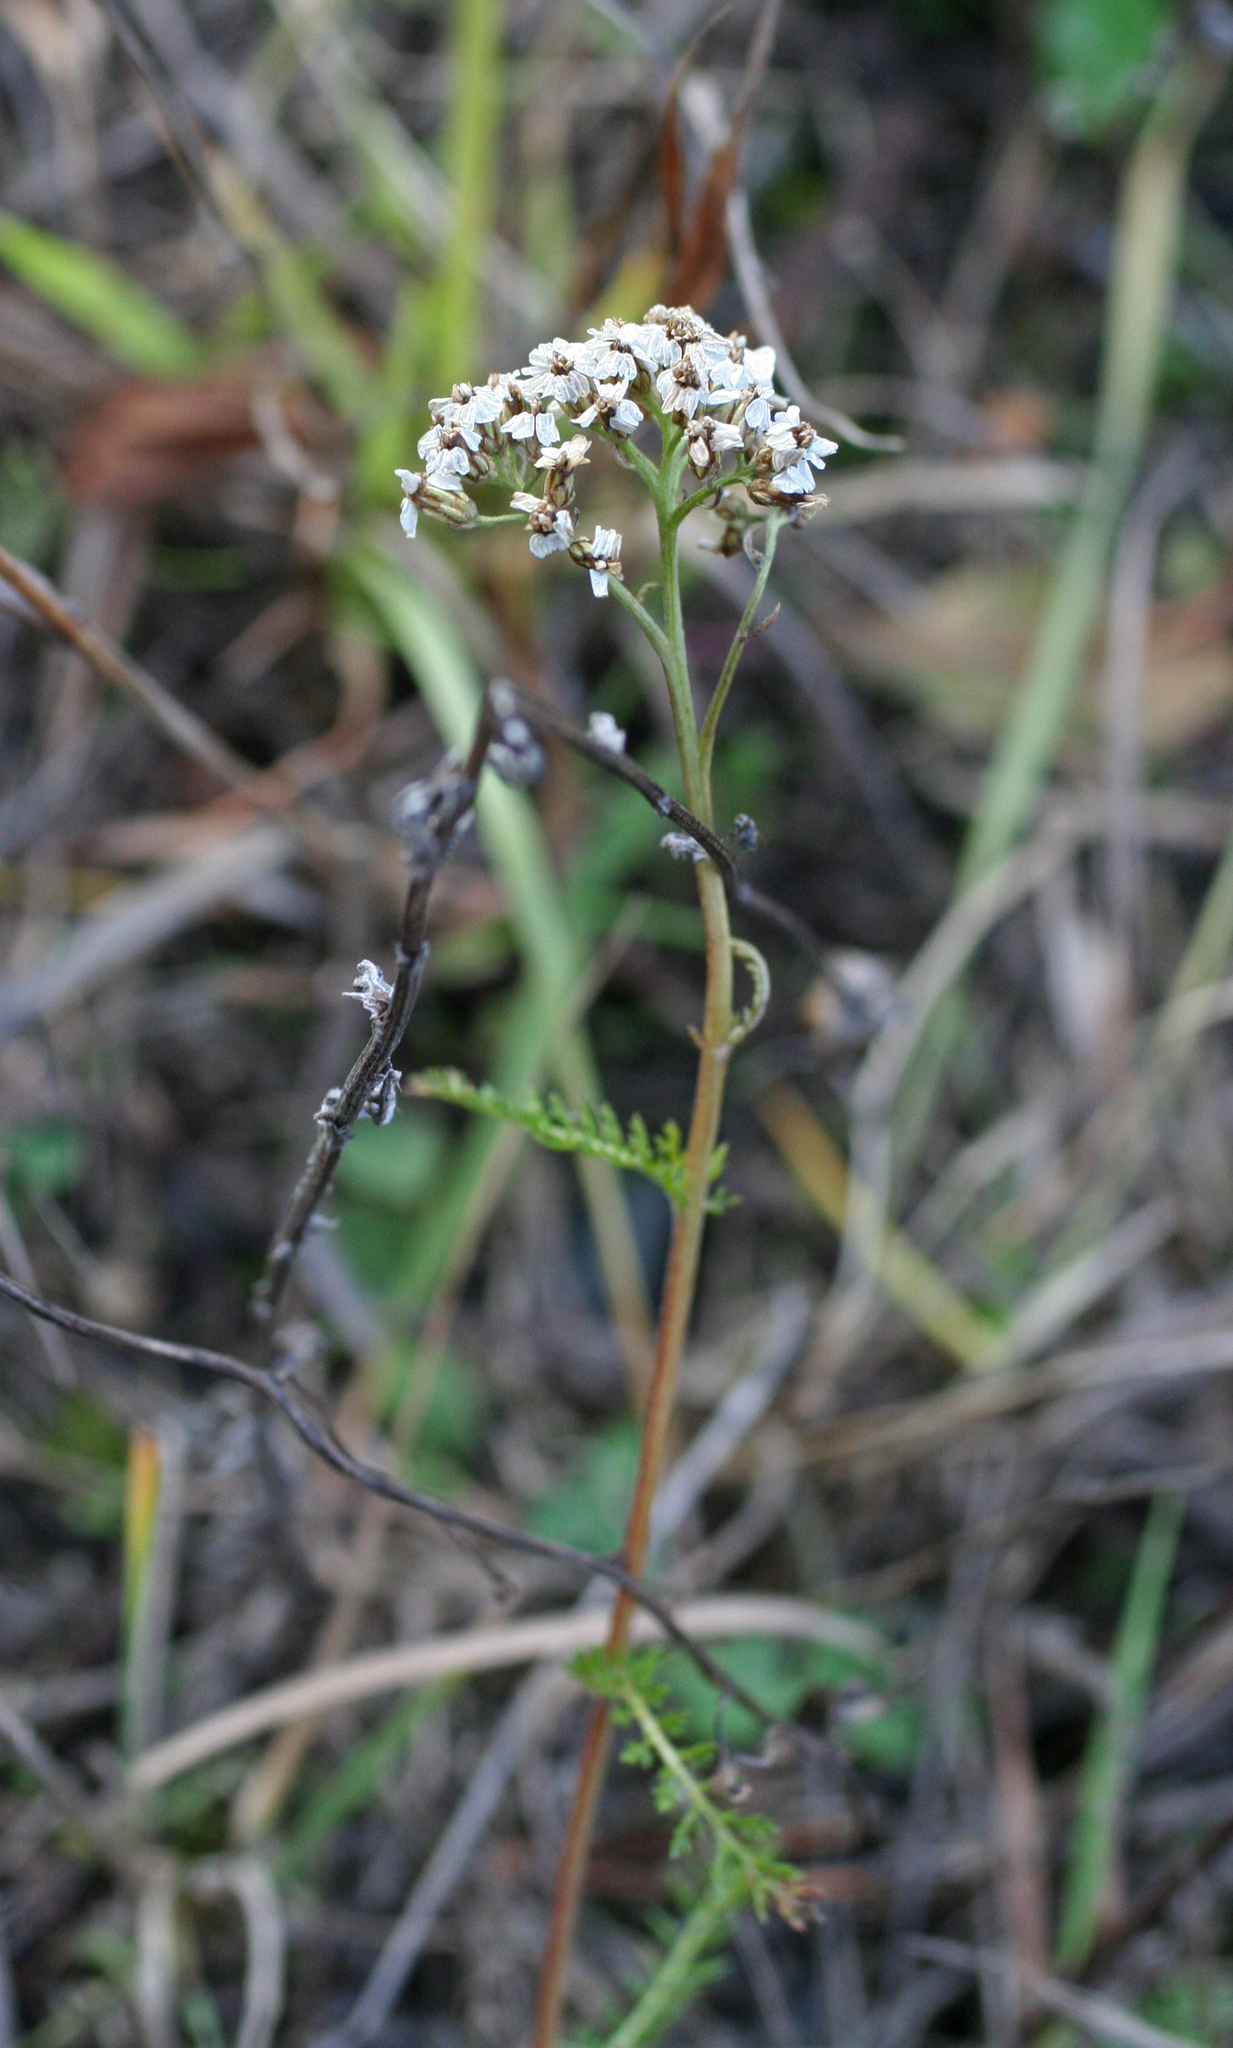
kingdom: Plantae
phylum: Tracheophyta
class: Magnoliopsida
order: Asterales
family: Asteraceae
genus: Achillea
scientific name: Achillea millefolium
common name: Yarrow
